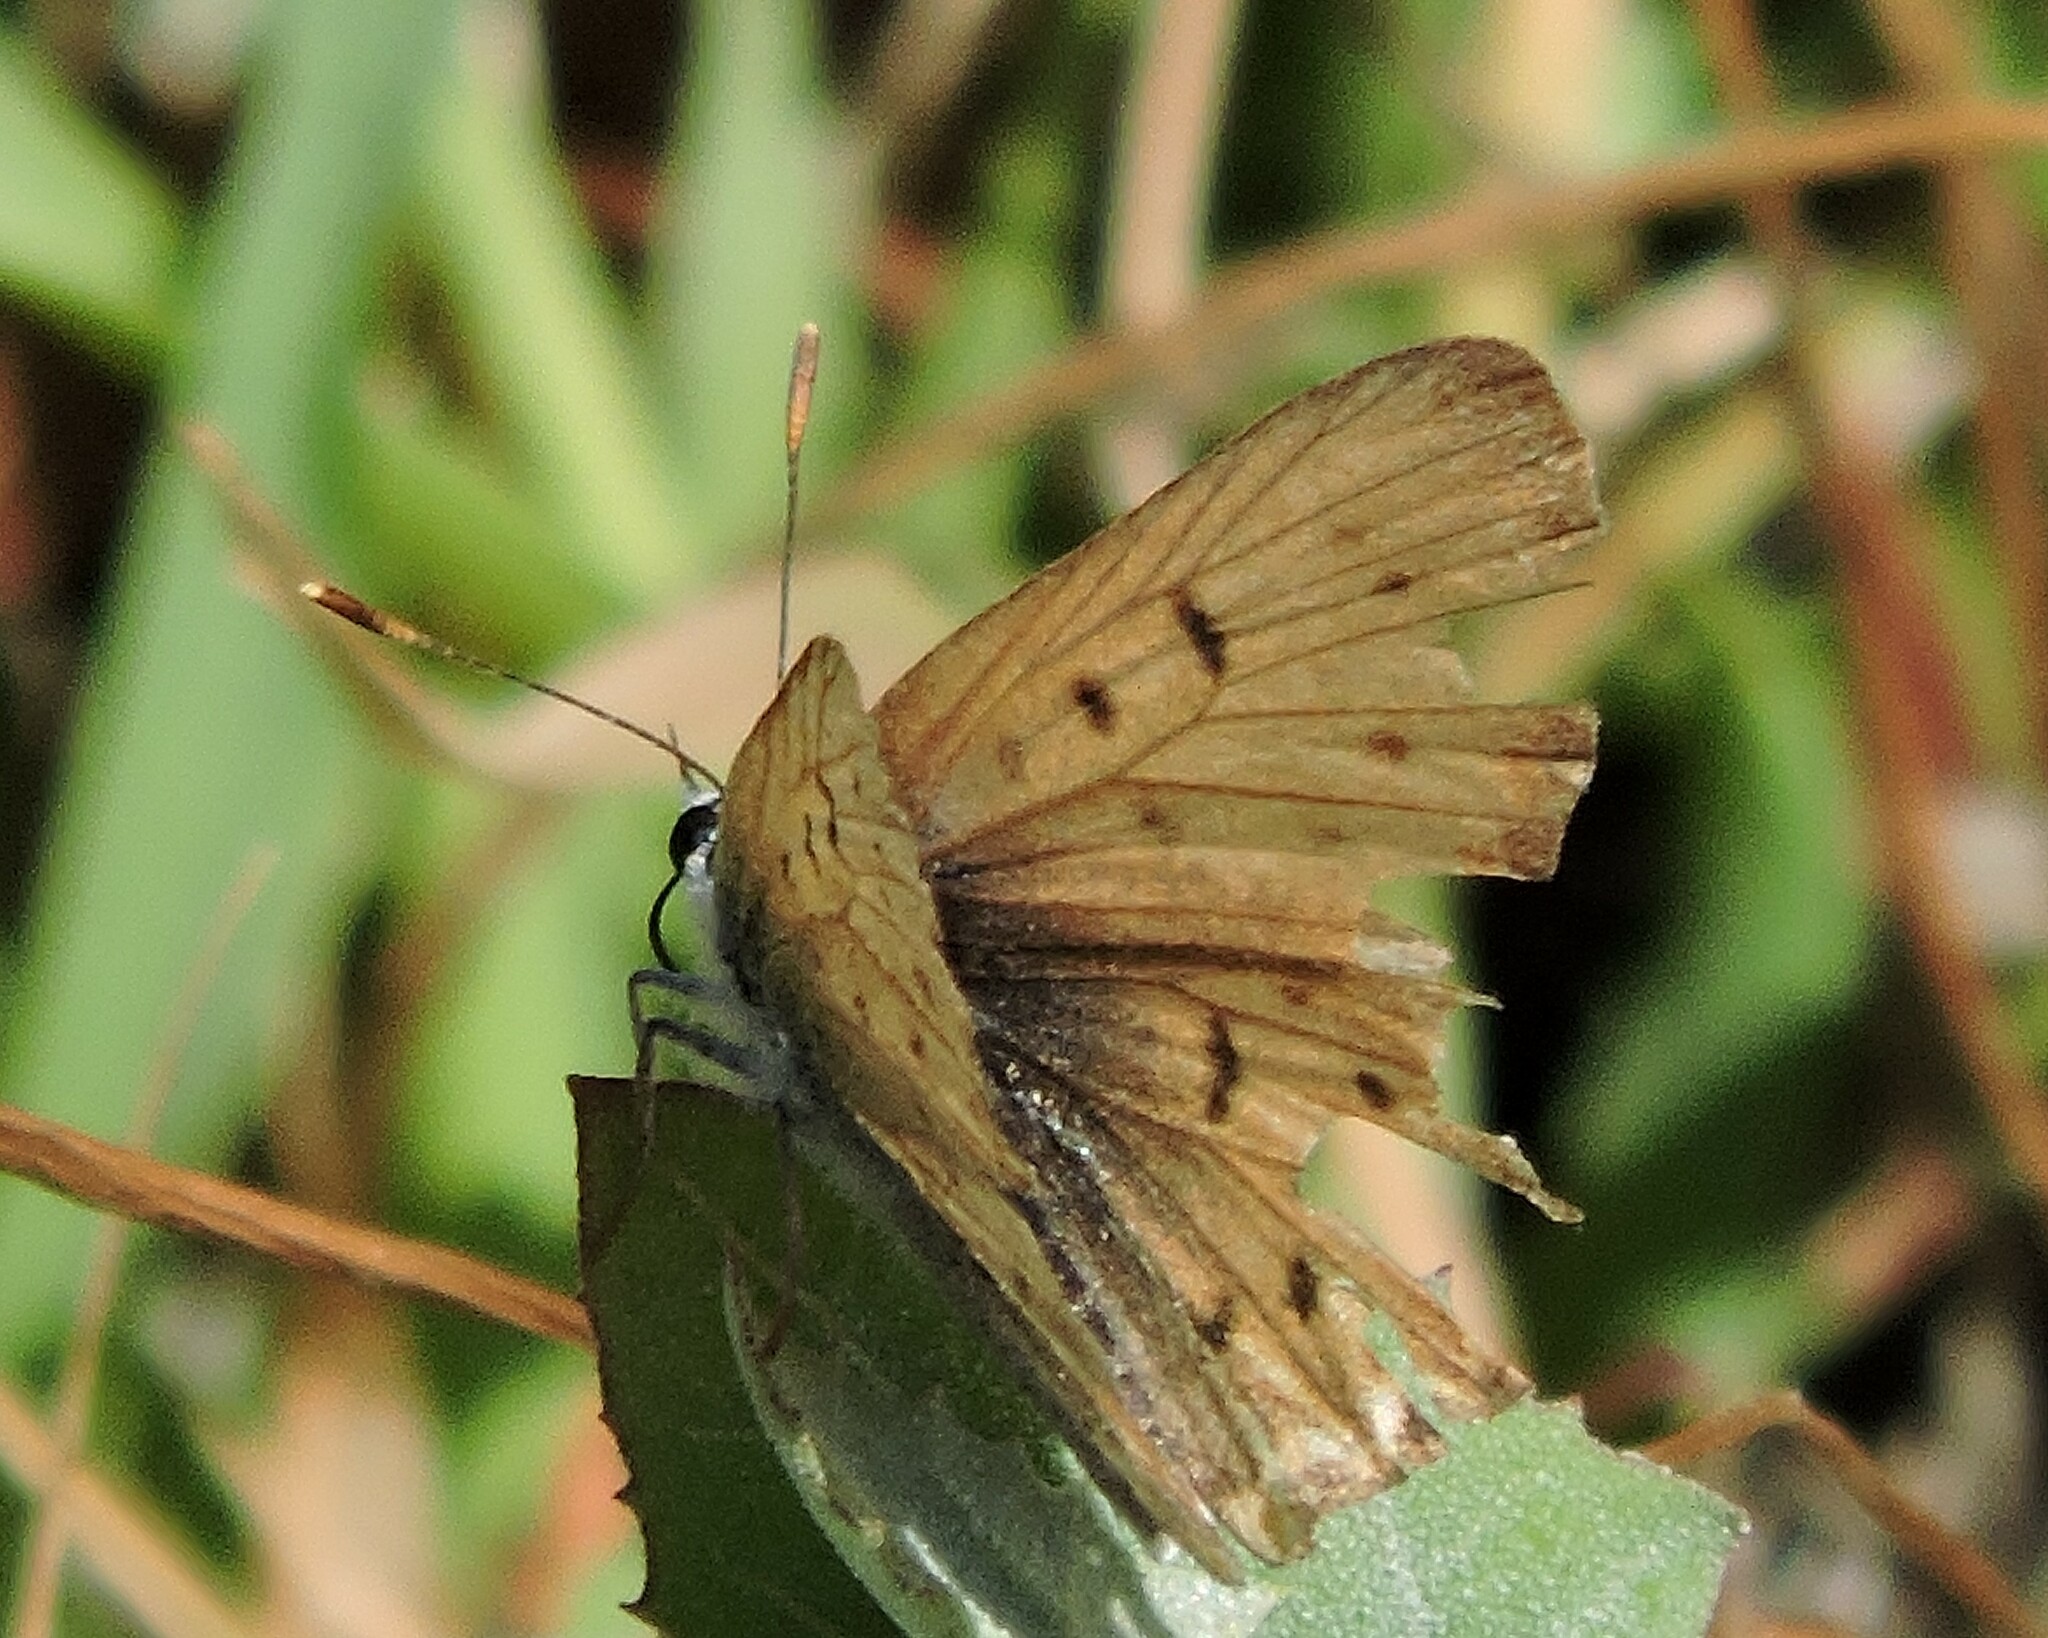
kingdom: Animalia
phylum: Arthropoda
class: Insecta
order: Lepidoptera
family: Lycaenidae
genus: Tharsalea
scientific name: Tharsalea helloides
